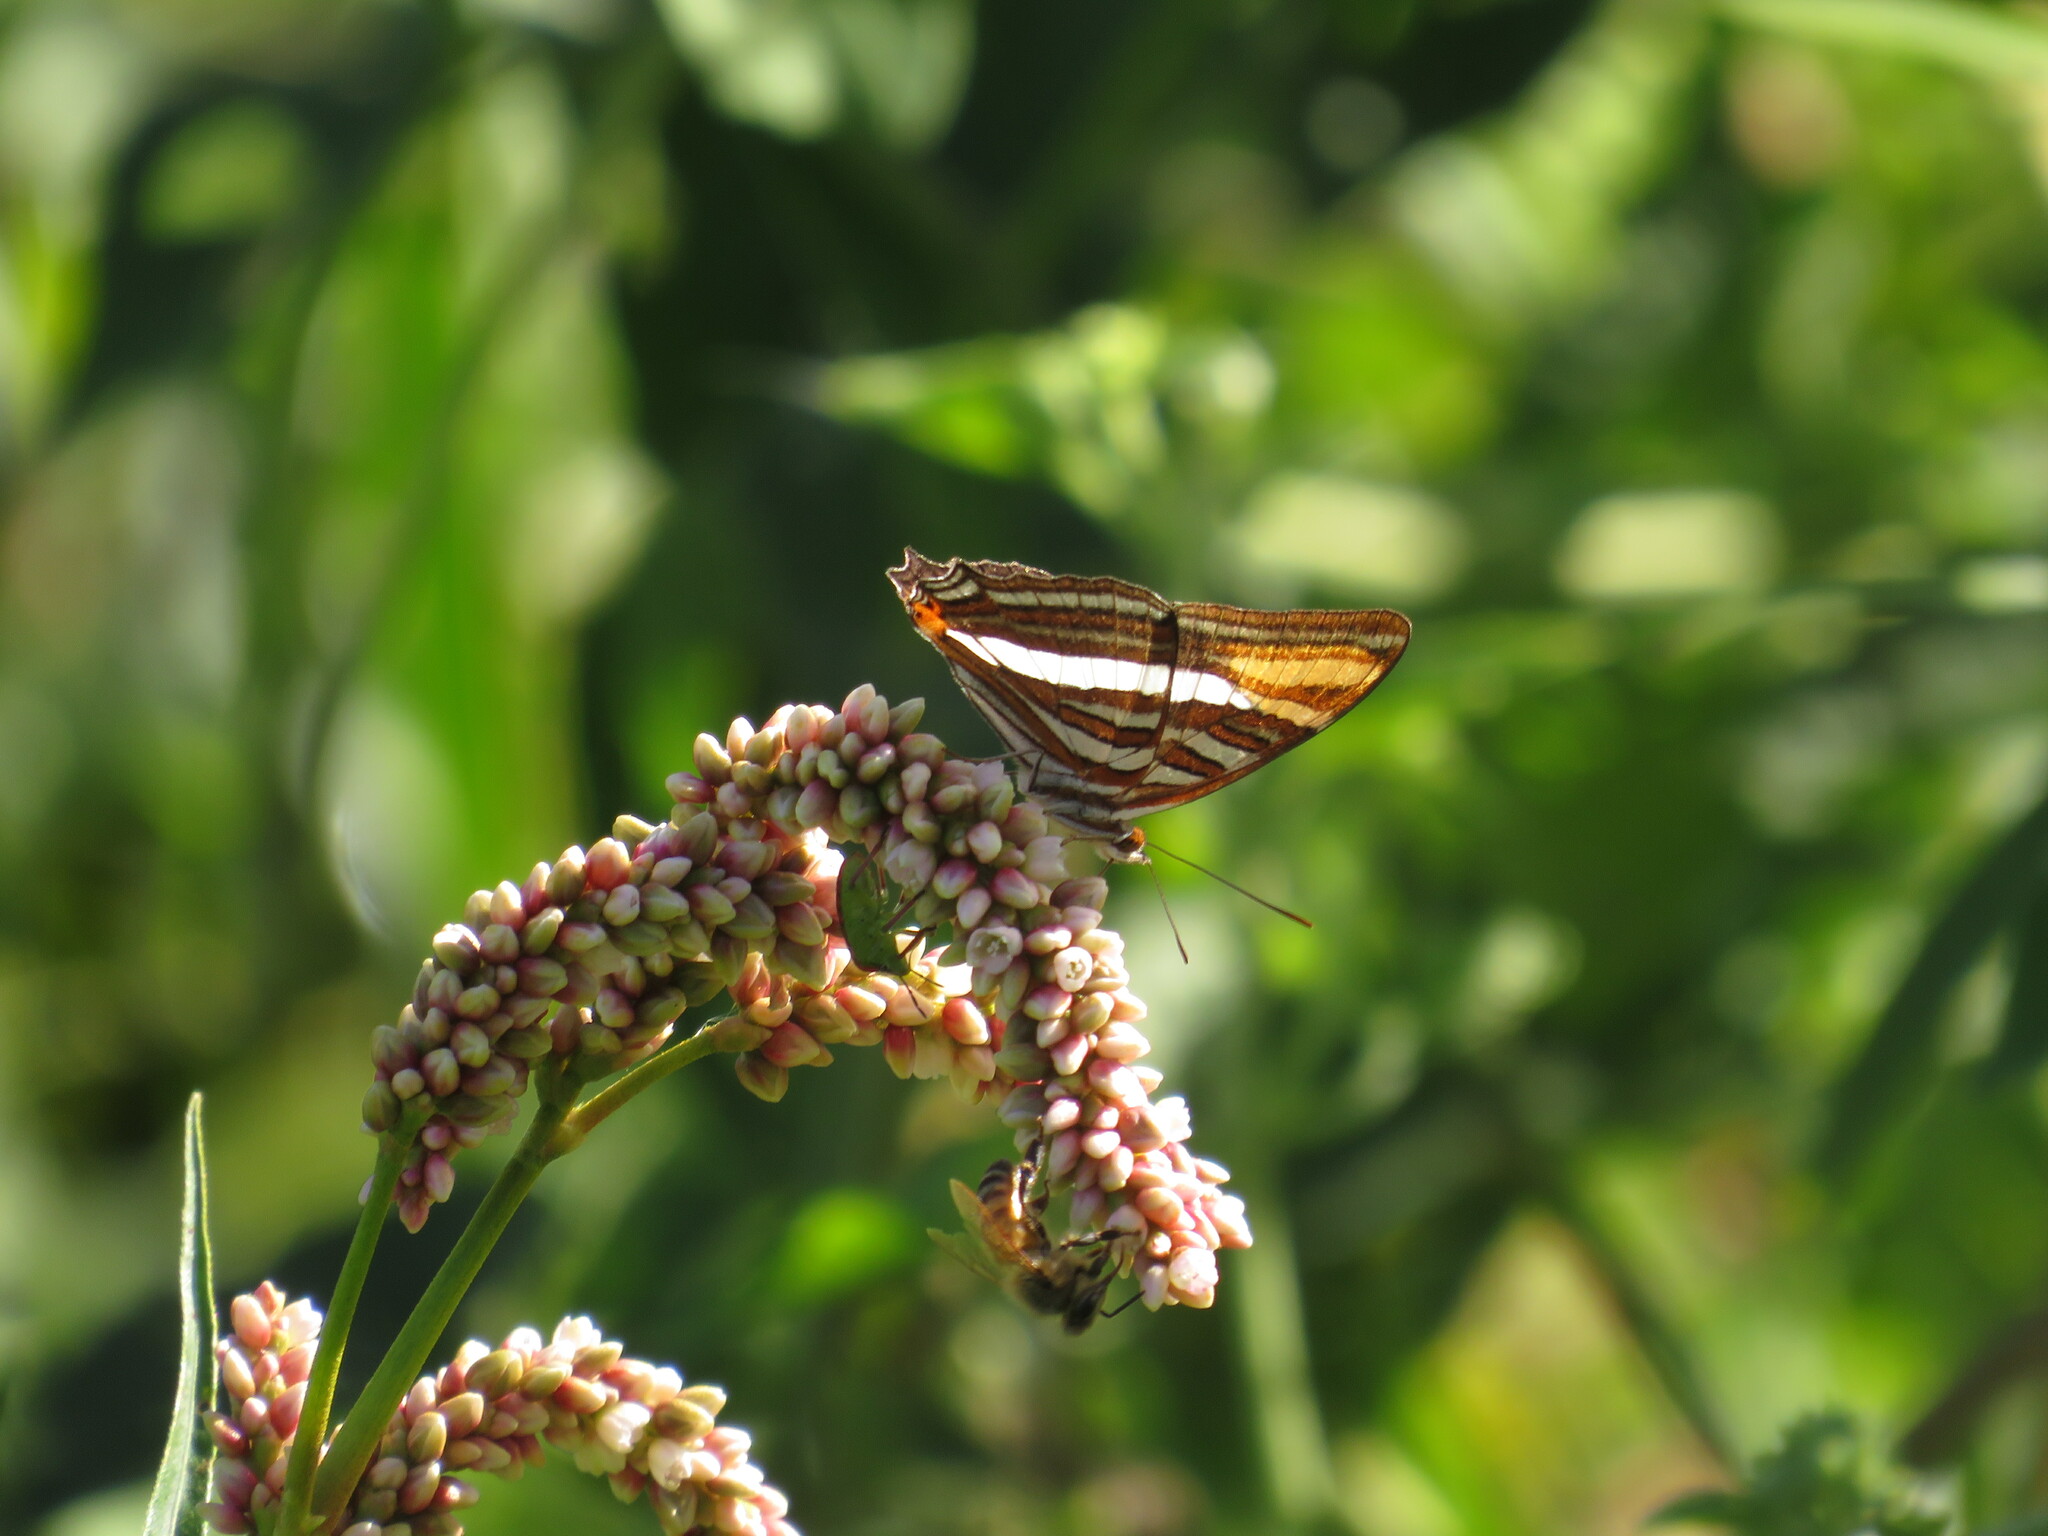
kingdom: Animalia
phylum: Arthropoda
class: Insecta
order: Lepidoptera
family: Nymphalidae
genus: Limenitis
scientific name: Limenitis syma
